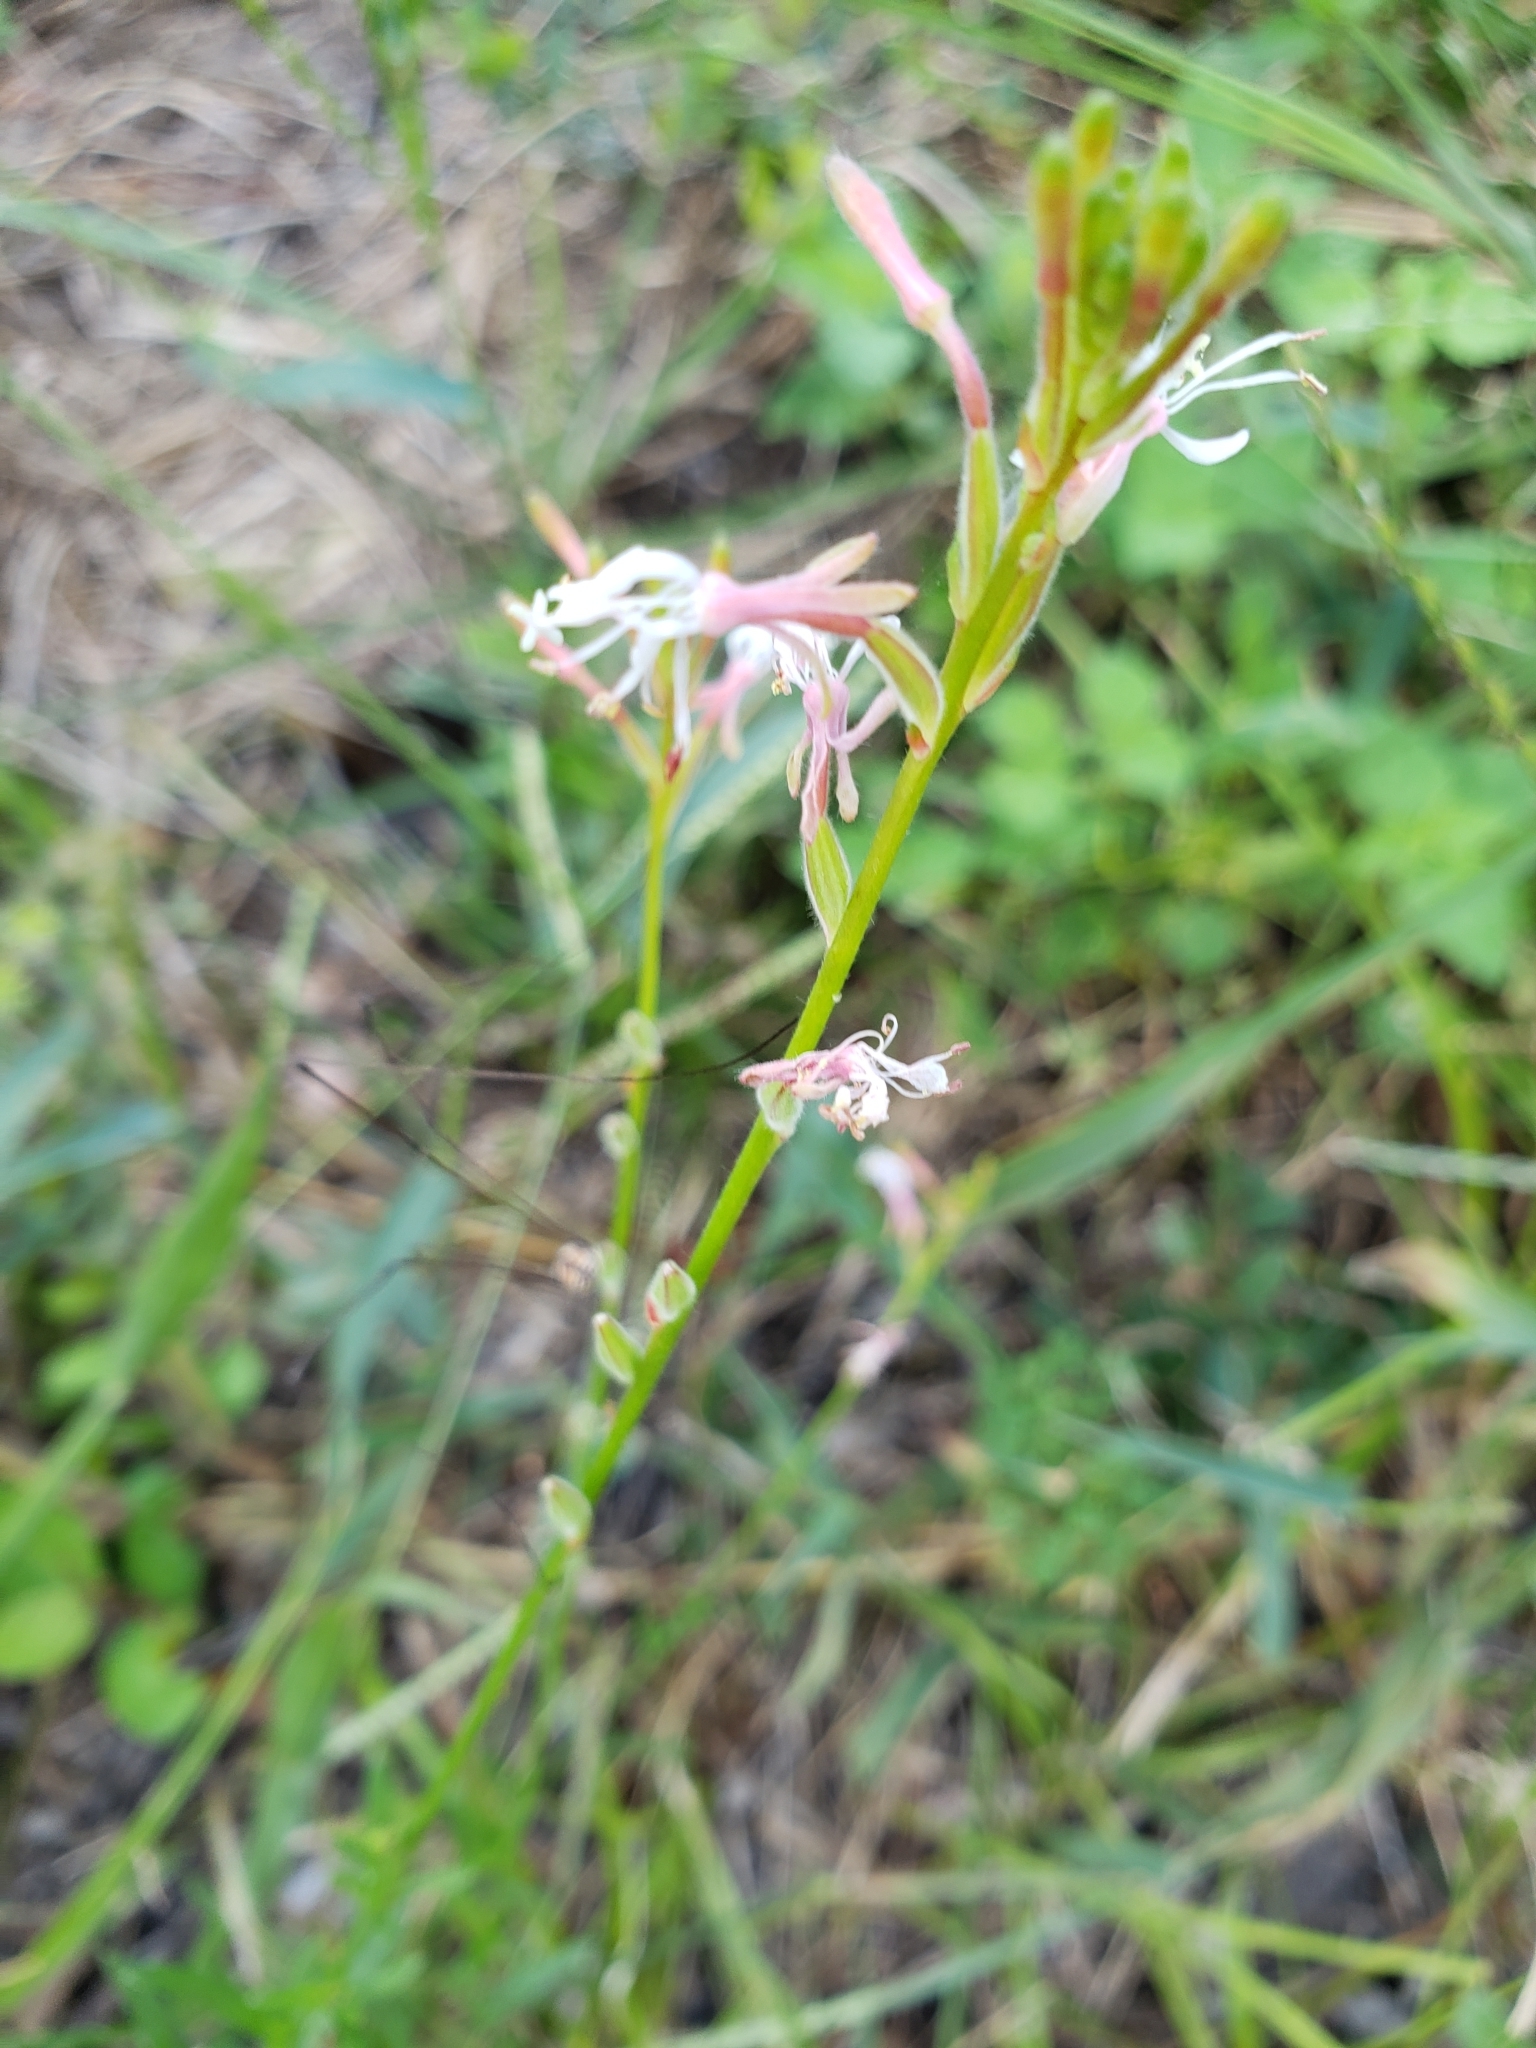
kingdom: Plantae
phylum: Tracheophyta
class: Magnoliopsida
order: Myrtales
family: Onagraceae
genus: Oenothera
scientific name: Oenothera simulans
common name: Southern beeblossom
